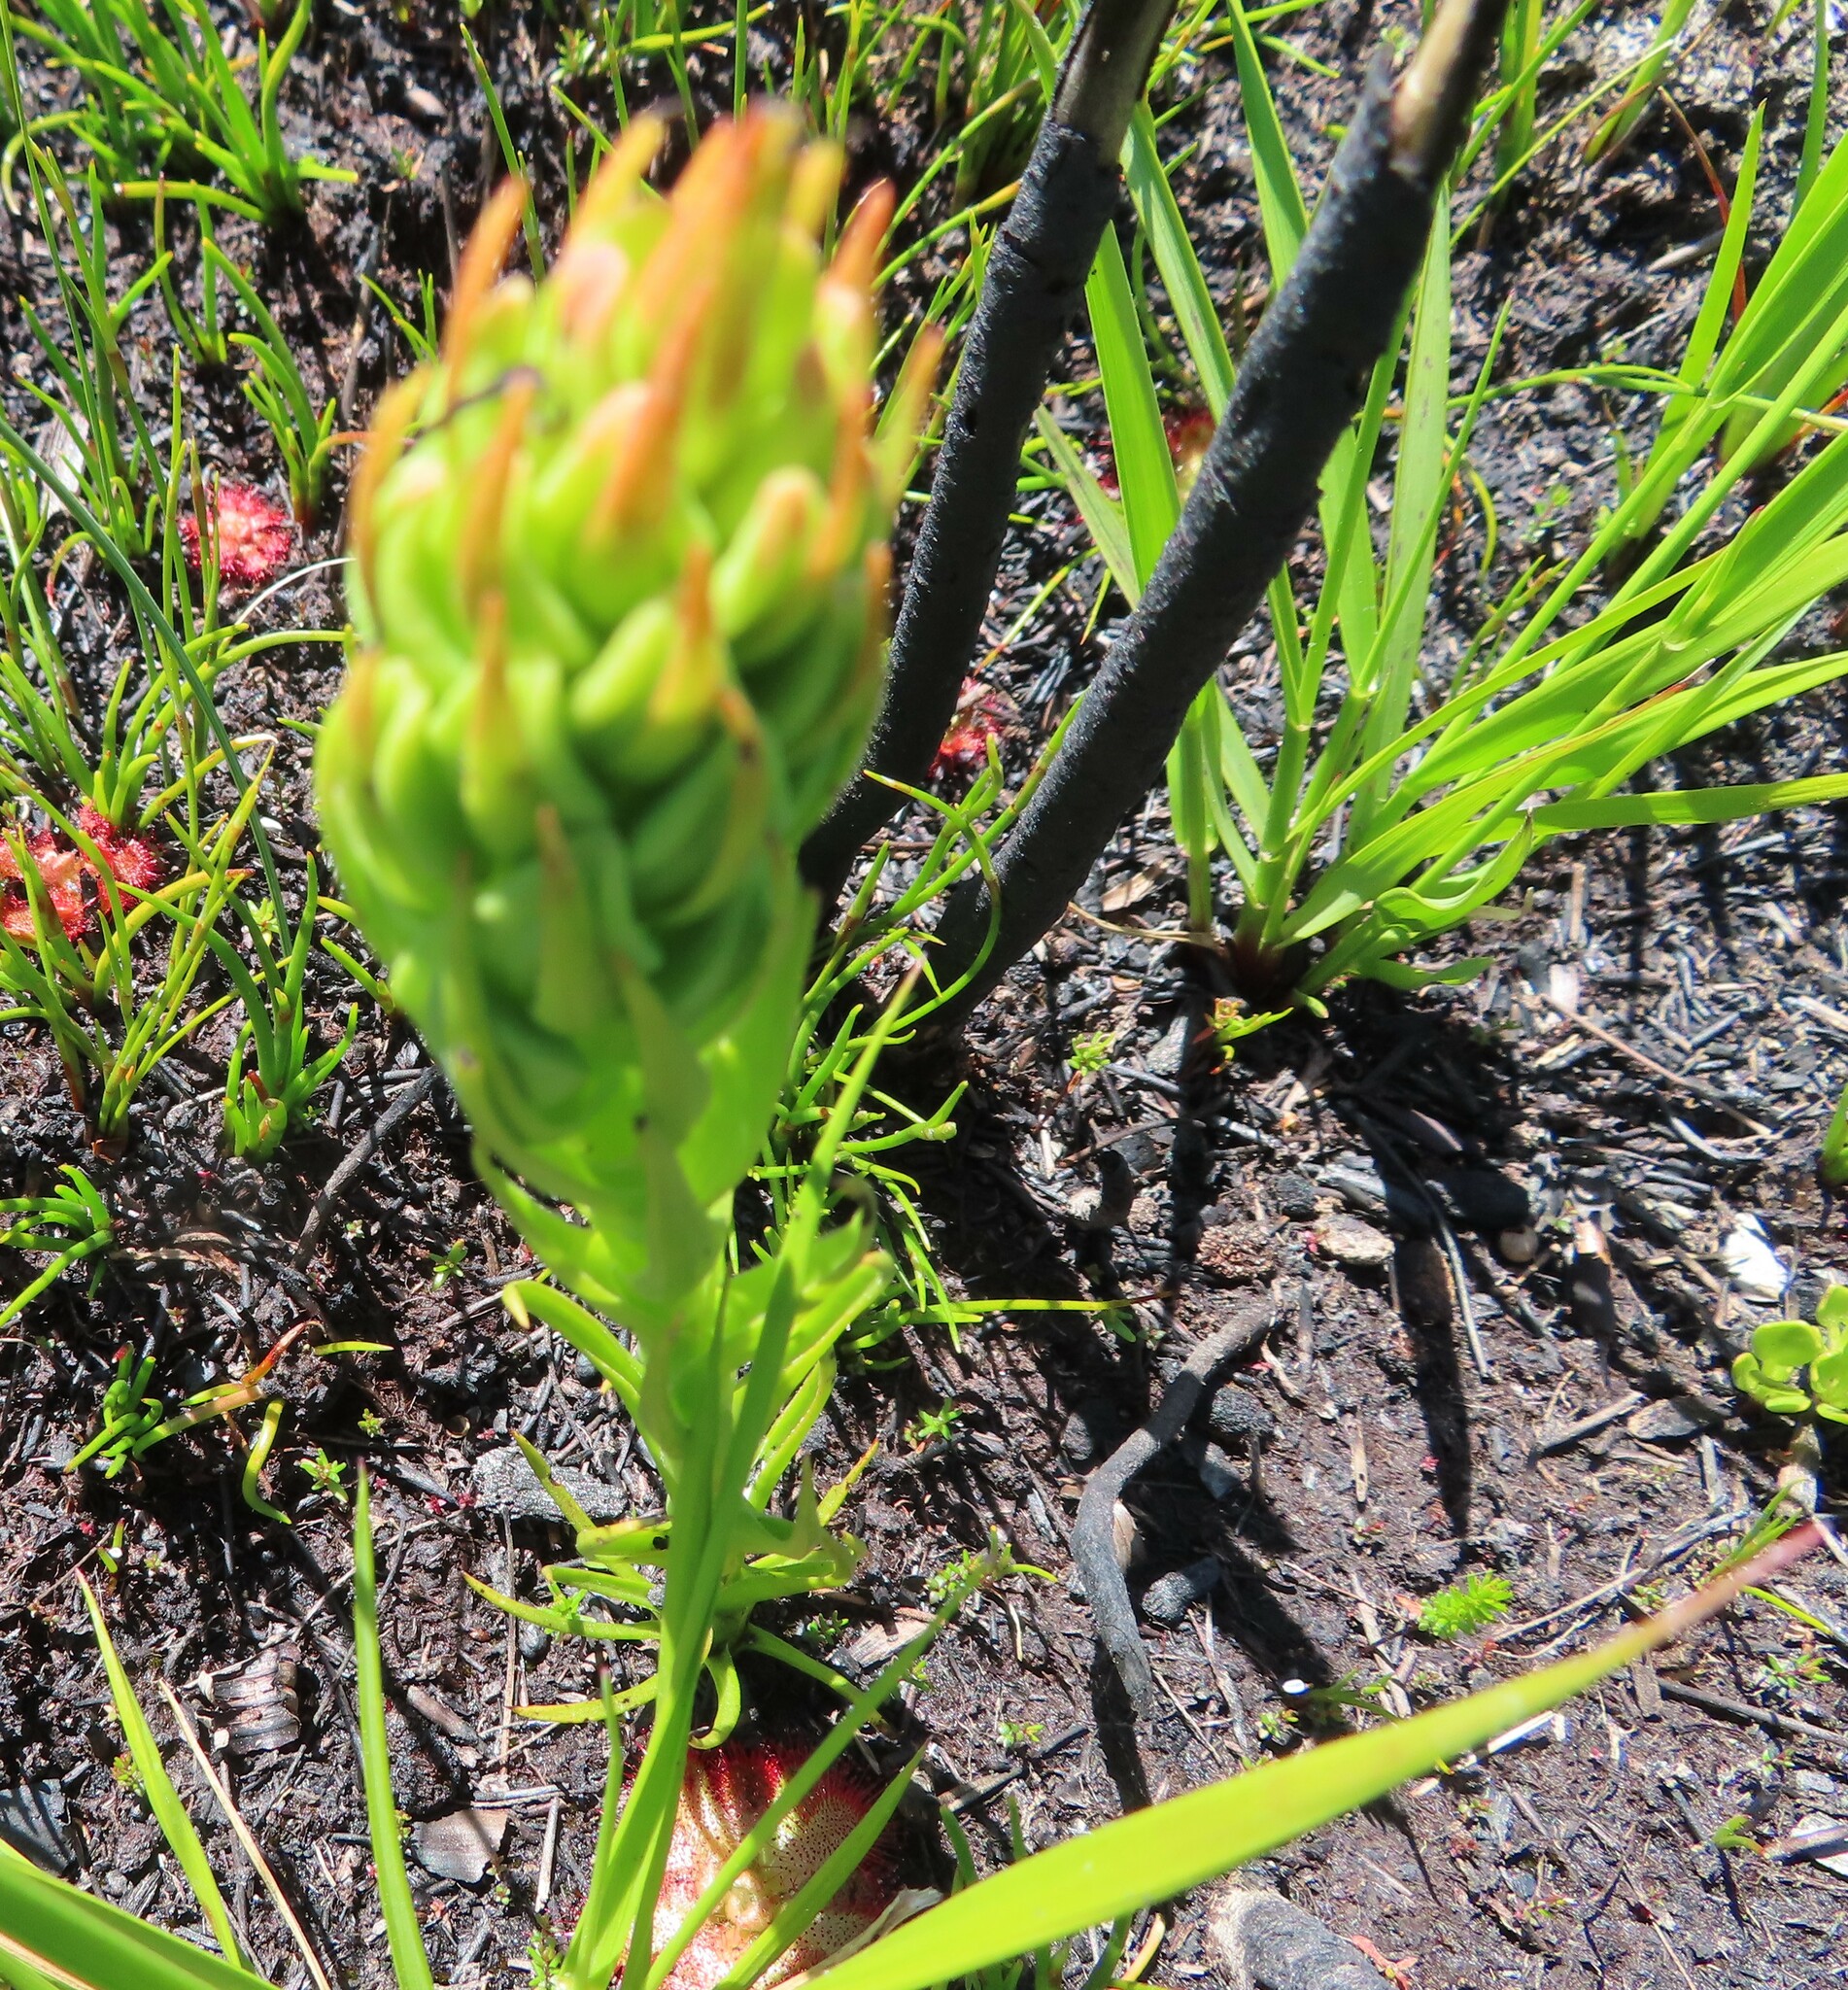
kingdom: Plantae
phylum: Tracheophyta
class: Liliopsida
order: Asparagales
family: Orchidaceae
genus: Ceratandra
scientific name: Ceratandra atrata
